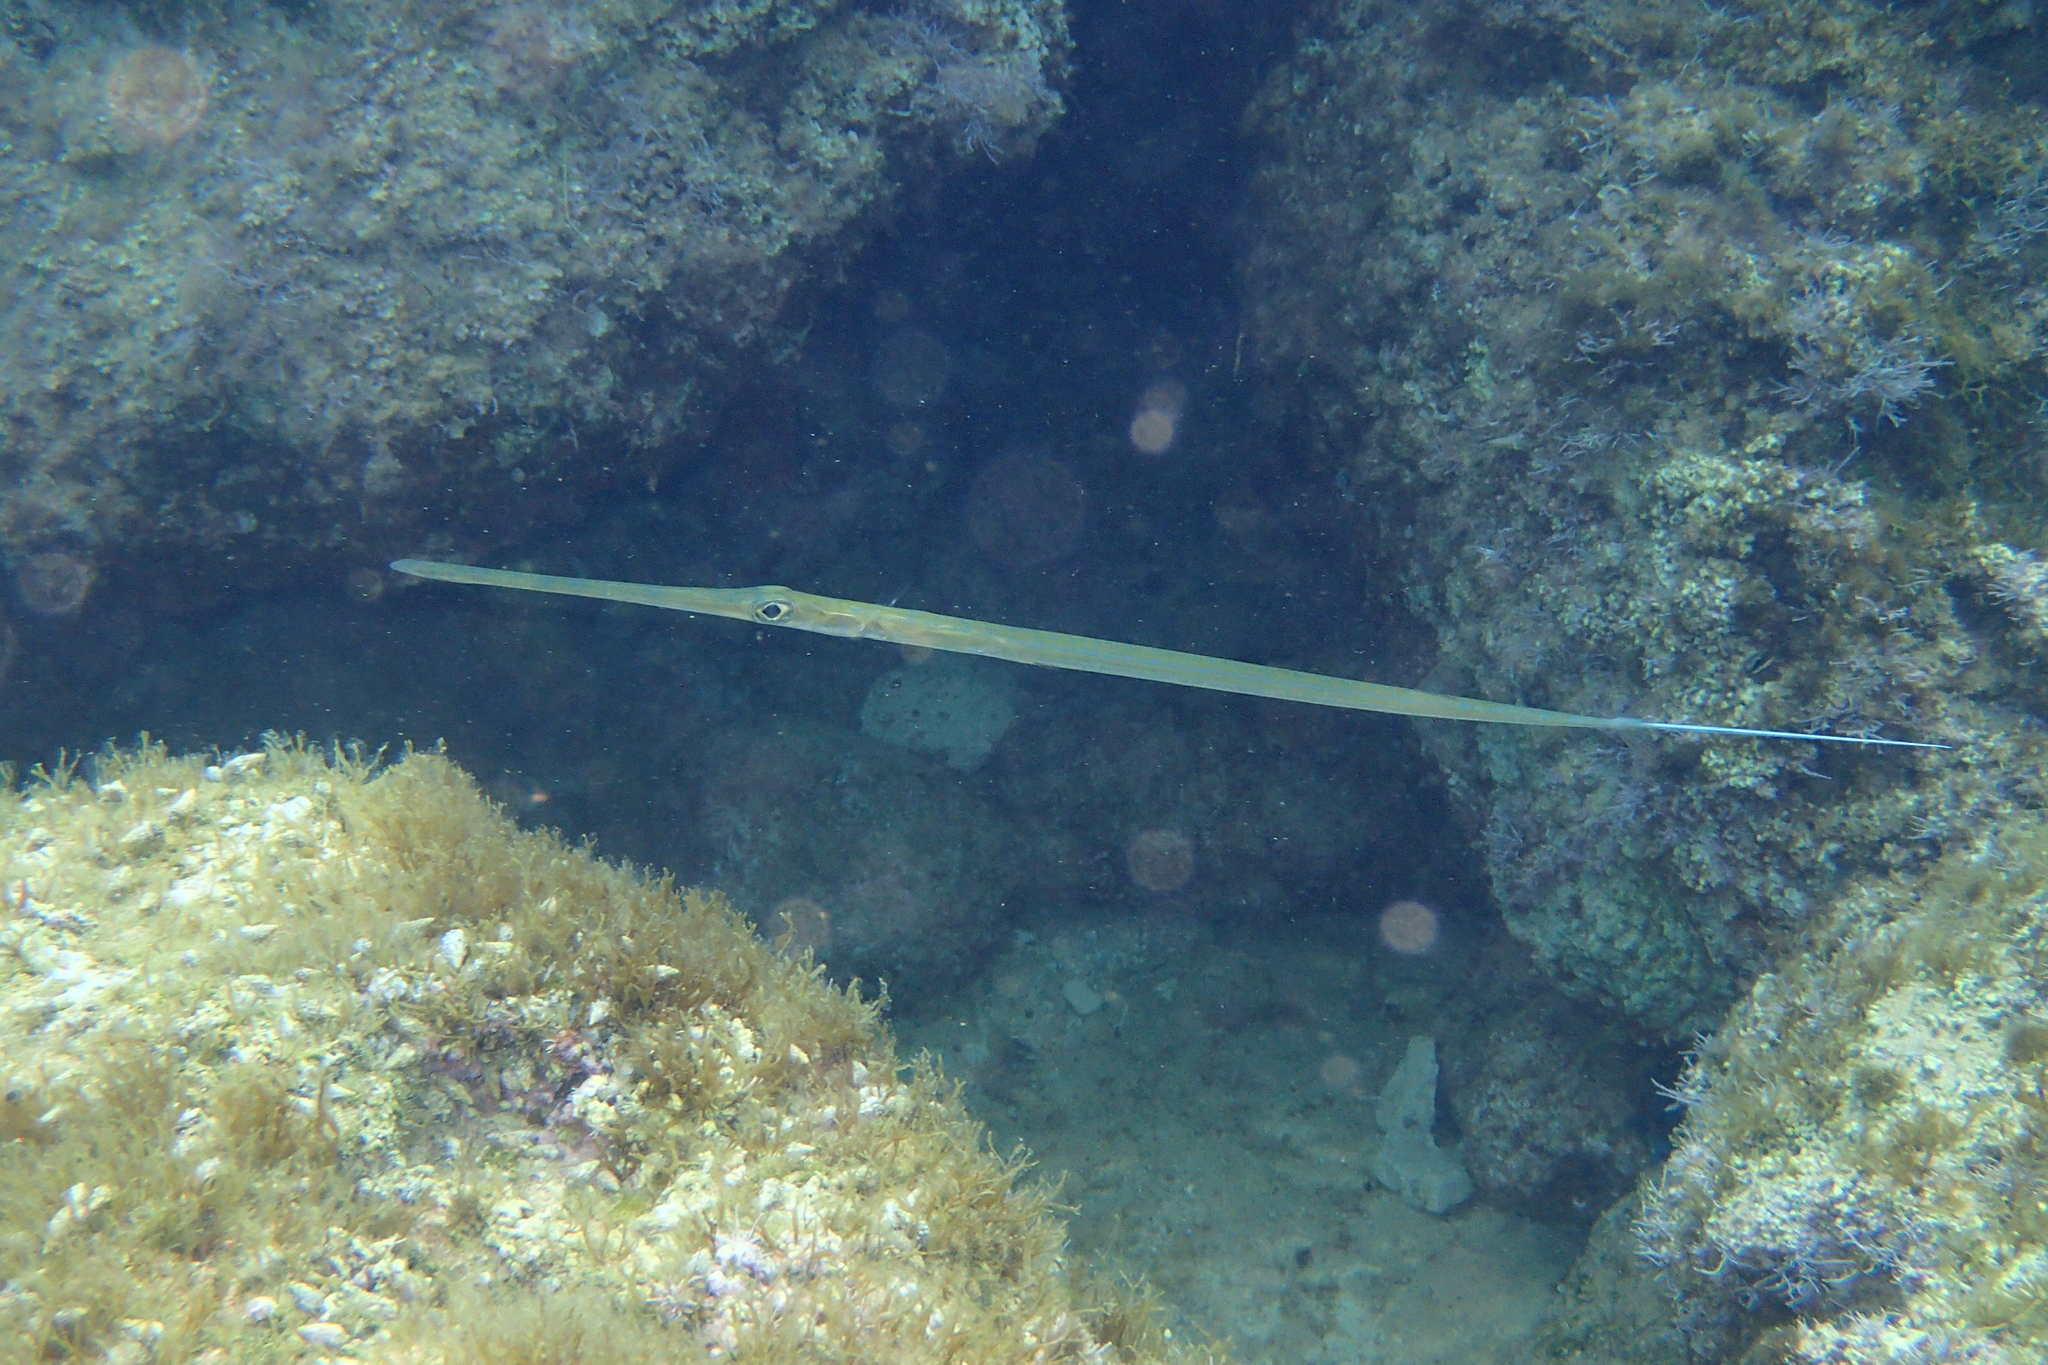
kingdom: Animalia
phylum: Chordata
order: Syngnathiformes
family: Fistulariidae
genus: Fistularia
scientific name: Fistularia commersonii
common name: Bluespotted cornetfish
